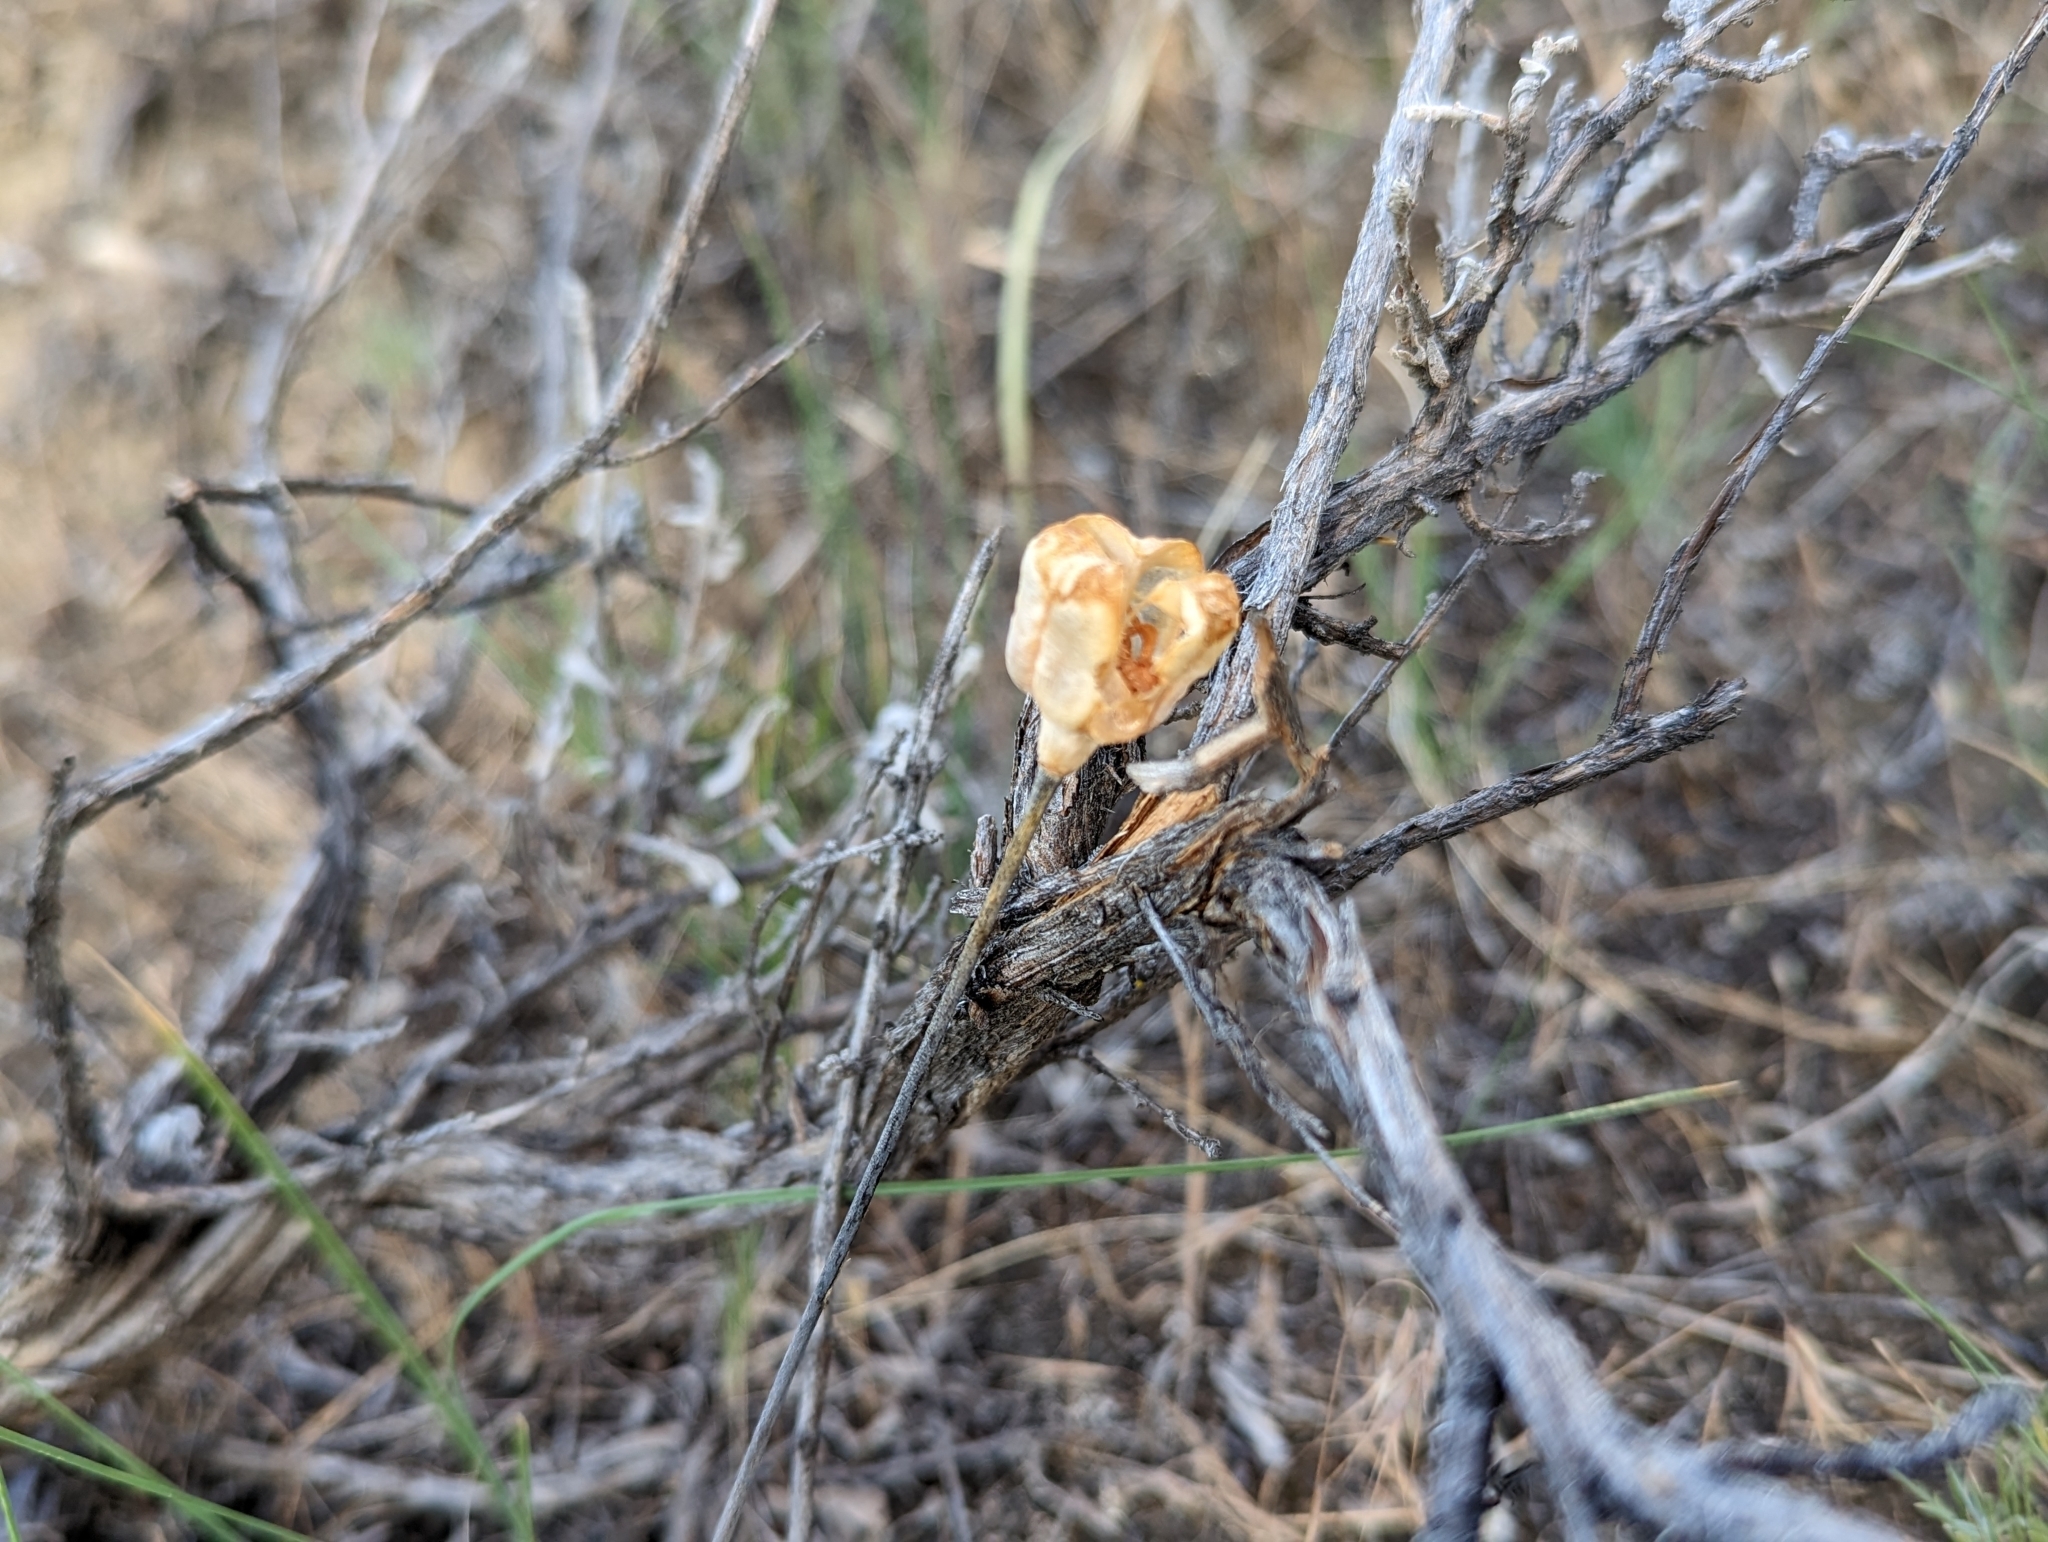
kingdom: Plantae
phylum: Tracheophyta
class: Liliopsida
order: Liliales
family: Liliaceae
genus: Fritillaria
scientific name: Fritillaria pudica
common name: Yellow fritillary
